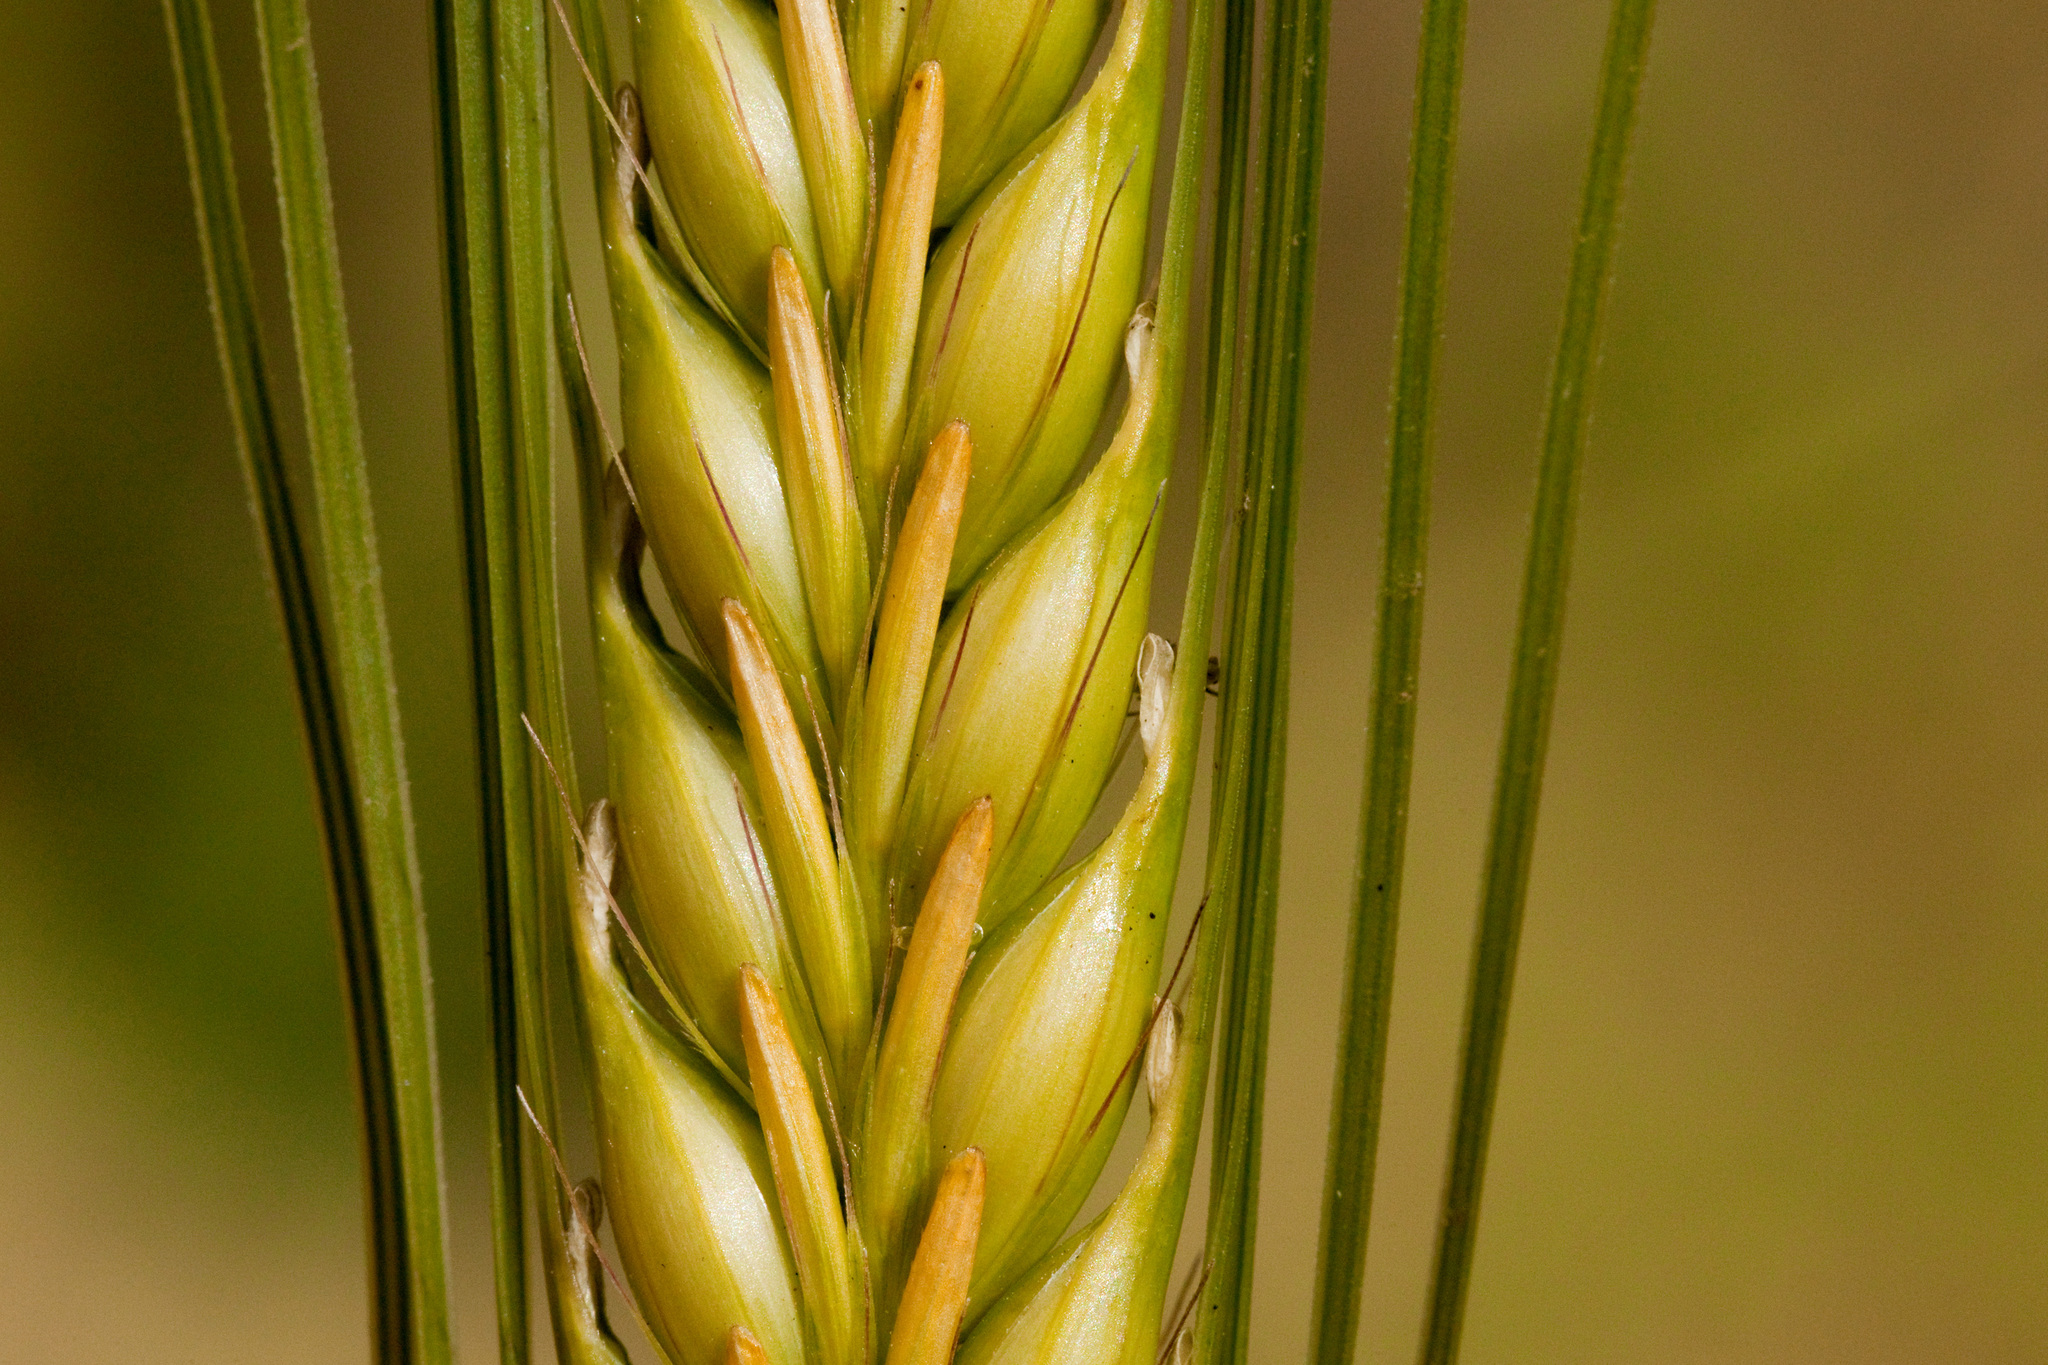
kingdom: Plantae
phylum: Tracheophyta
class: Liliopsida
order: Poales
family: Poaceae
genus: Hordeum
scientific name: Hordeum vulgare
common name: Common barley
